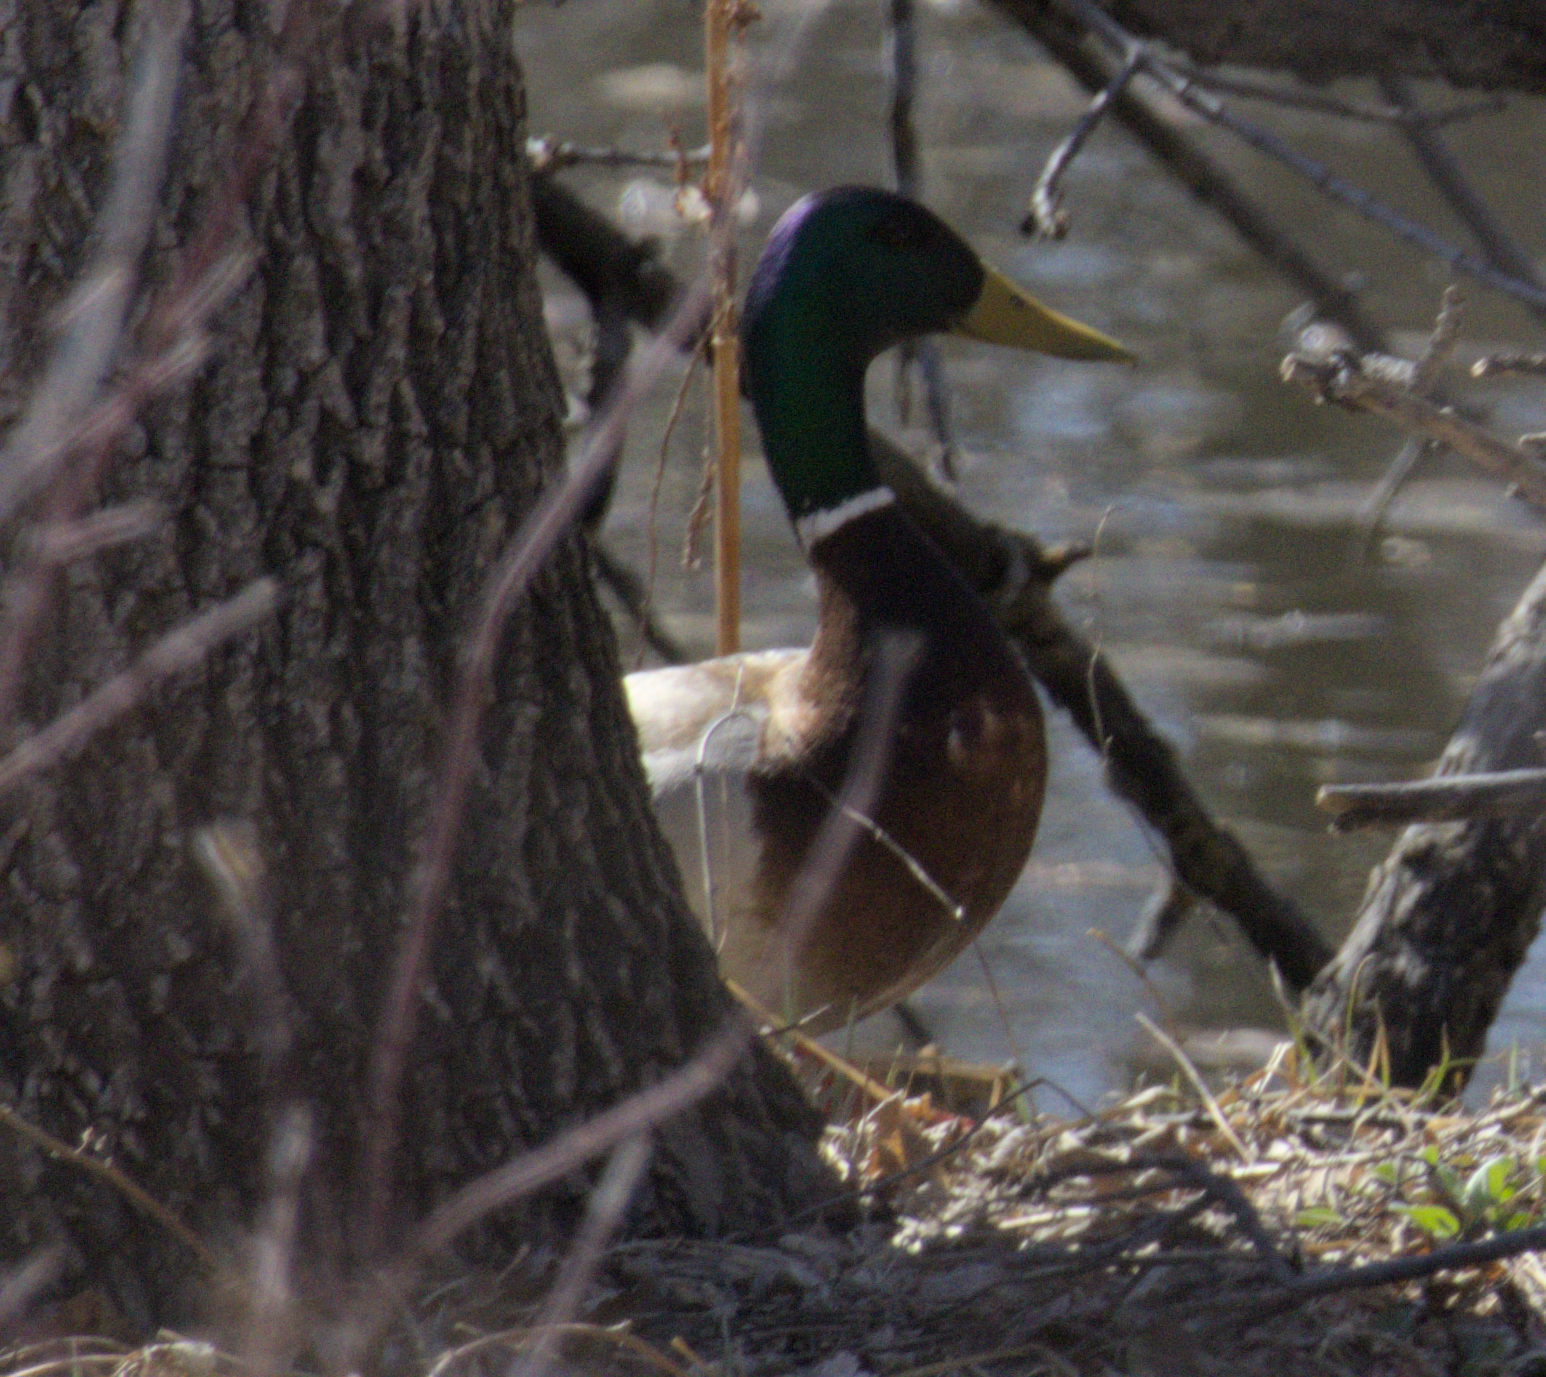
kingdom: Animalia
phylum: Chordata
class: Aves
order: Anseriformes
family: Anatidae
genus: Anas
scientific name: Anas platyrhynchos
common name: Mallard
